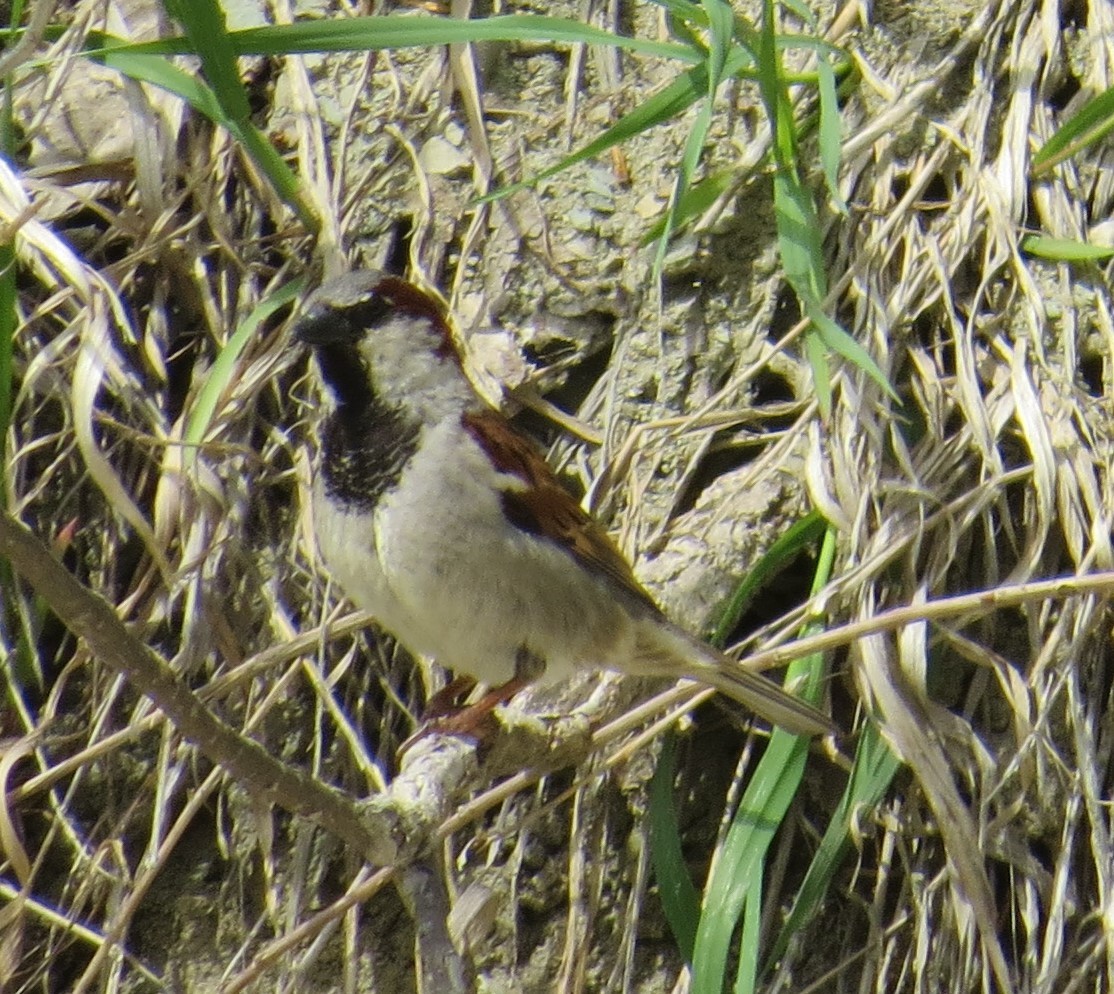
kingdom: Animalia
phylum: Chordata
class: Aves
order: Passeriformes
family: Passeridae
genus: Passer
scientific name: Passer domesticus
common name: House sparrow
